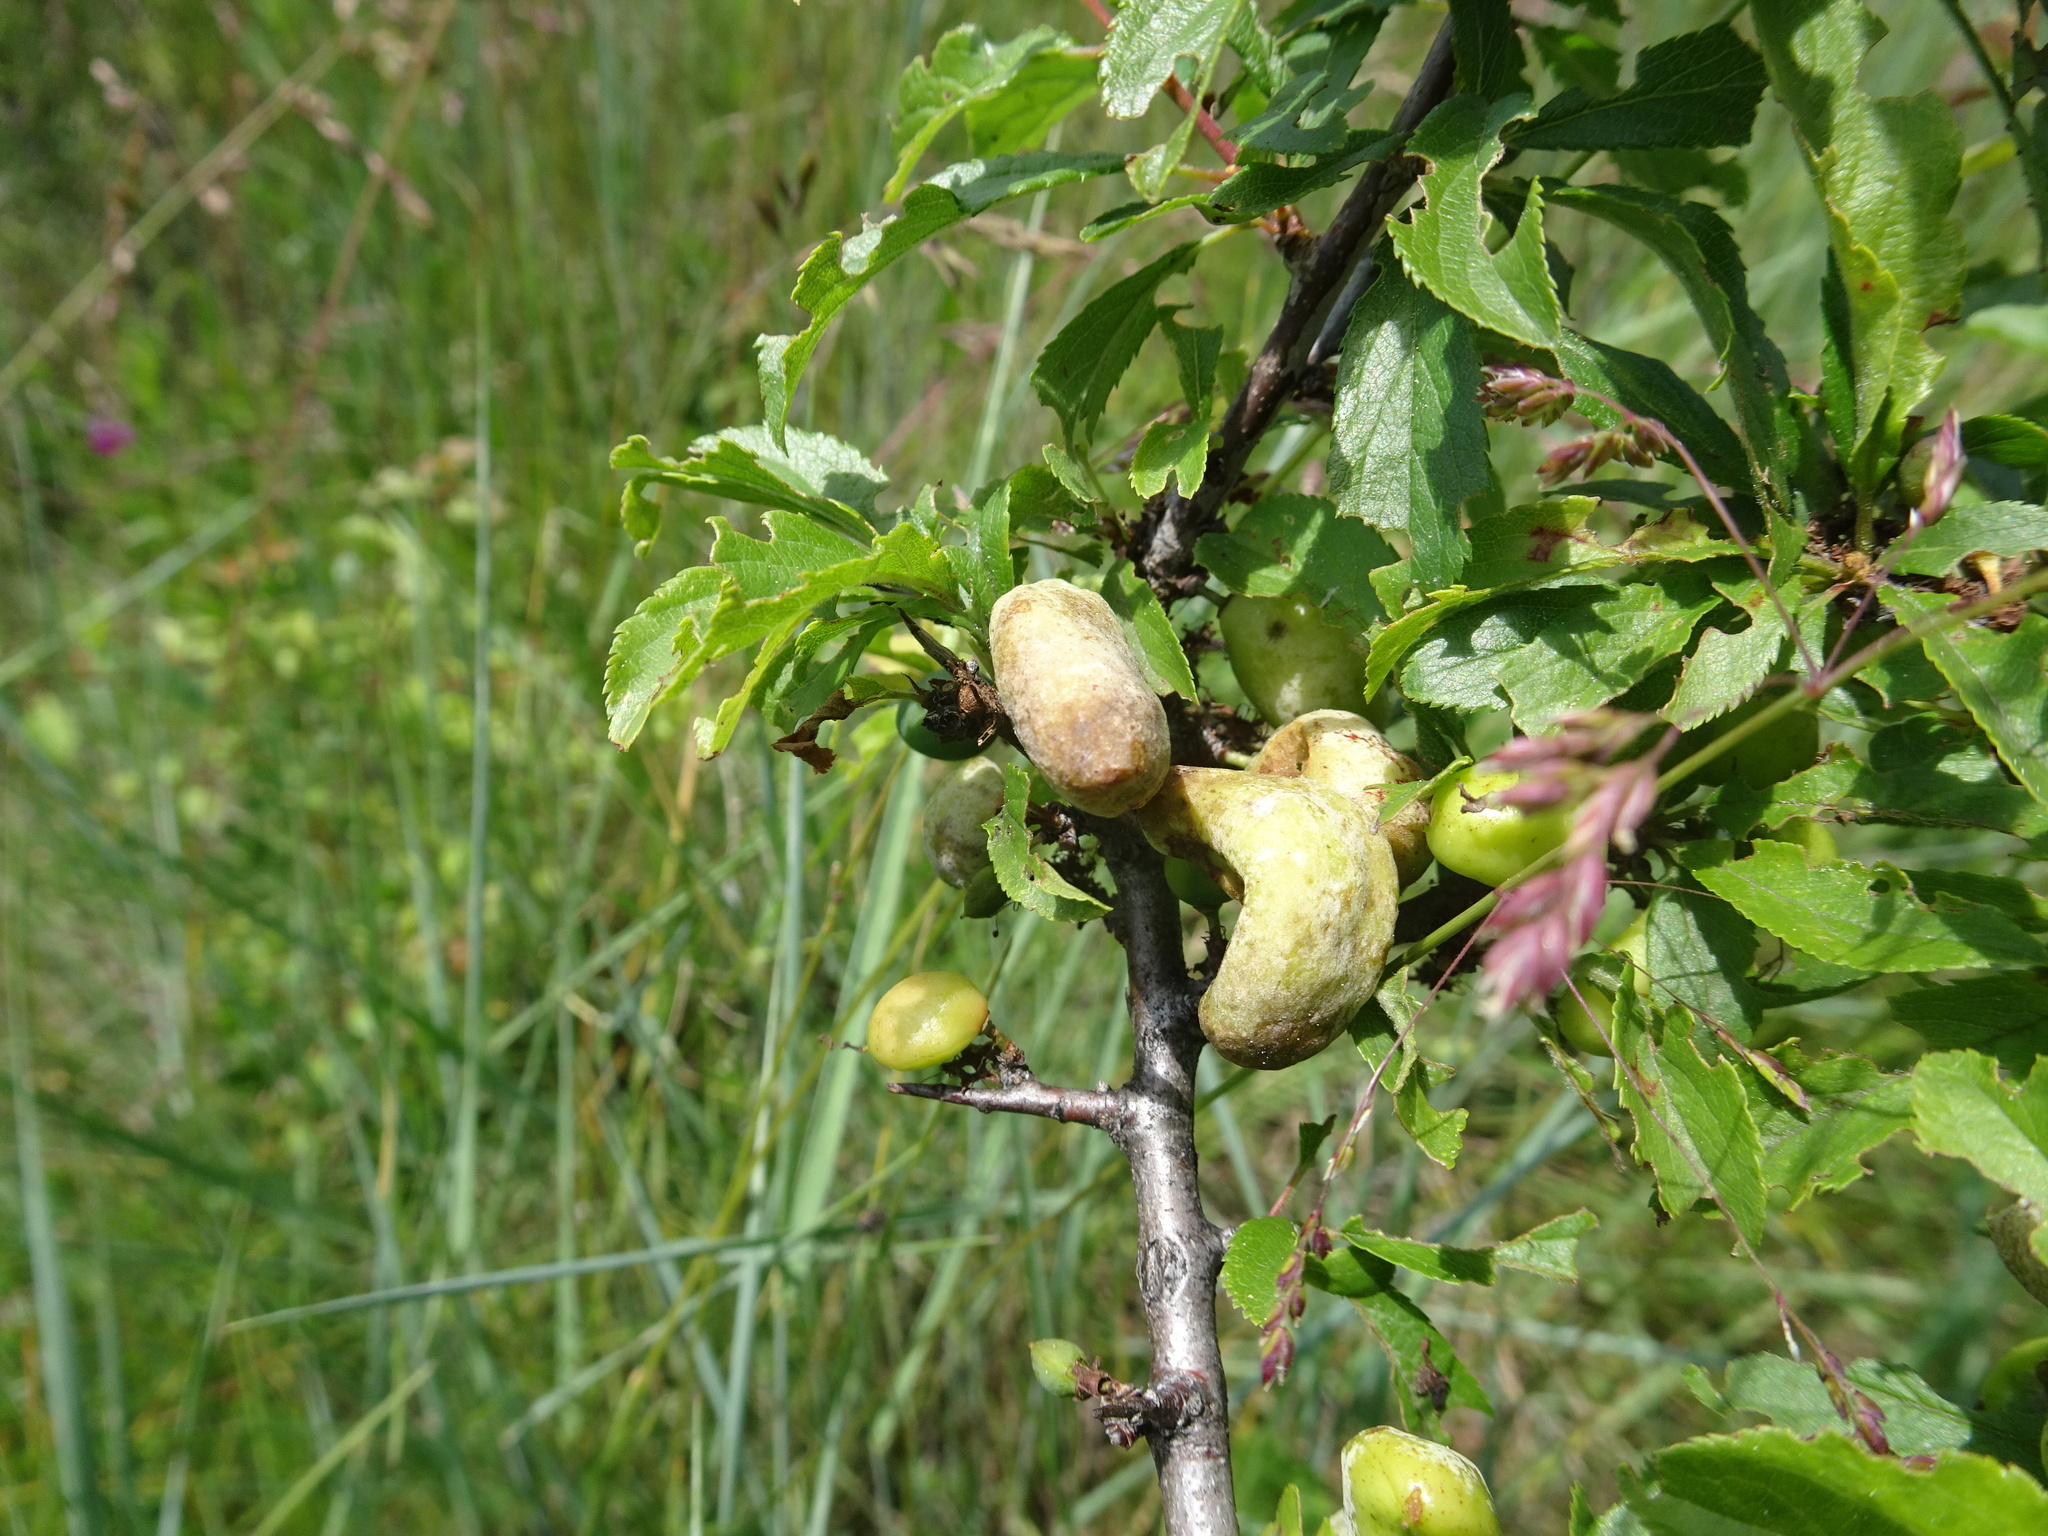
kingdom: Fungi
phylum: Ascomycota
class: Taphrinomycetes
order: Taphrinales
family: Taphrinaceae
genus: Taphrina
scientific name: Taphrina pruni
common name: Pocket plum
